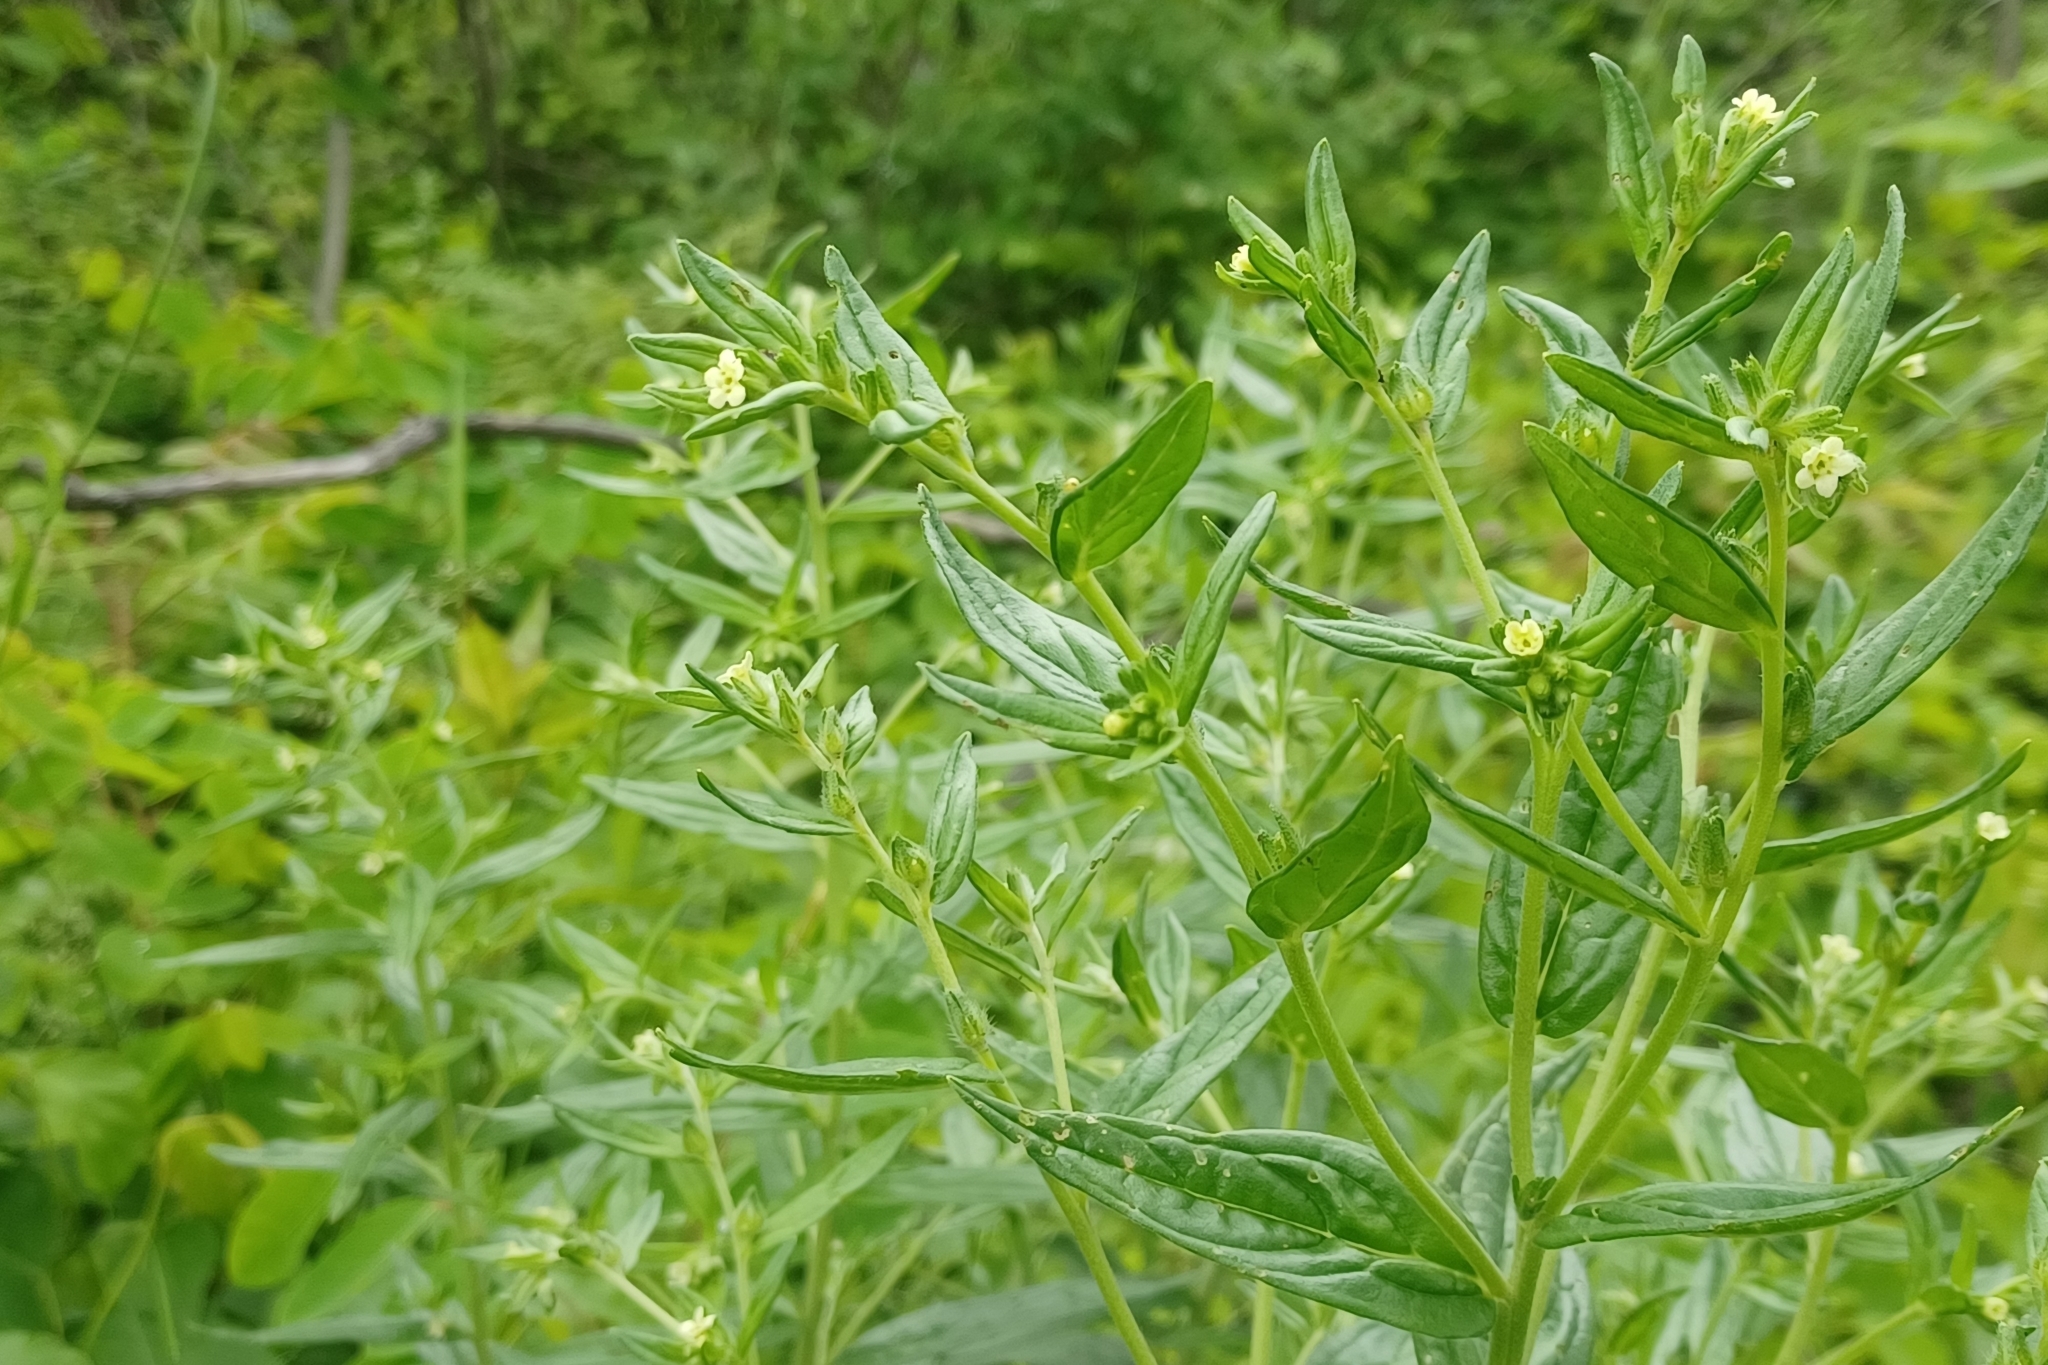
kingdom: Plantae
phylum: Tracheophyta
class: Magnoliopsida
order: Boraginales
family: Boraginaceae
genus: Lithospermum
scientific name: Lithospermum officinale
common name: Common gromwell
